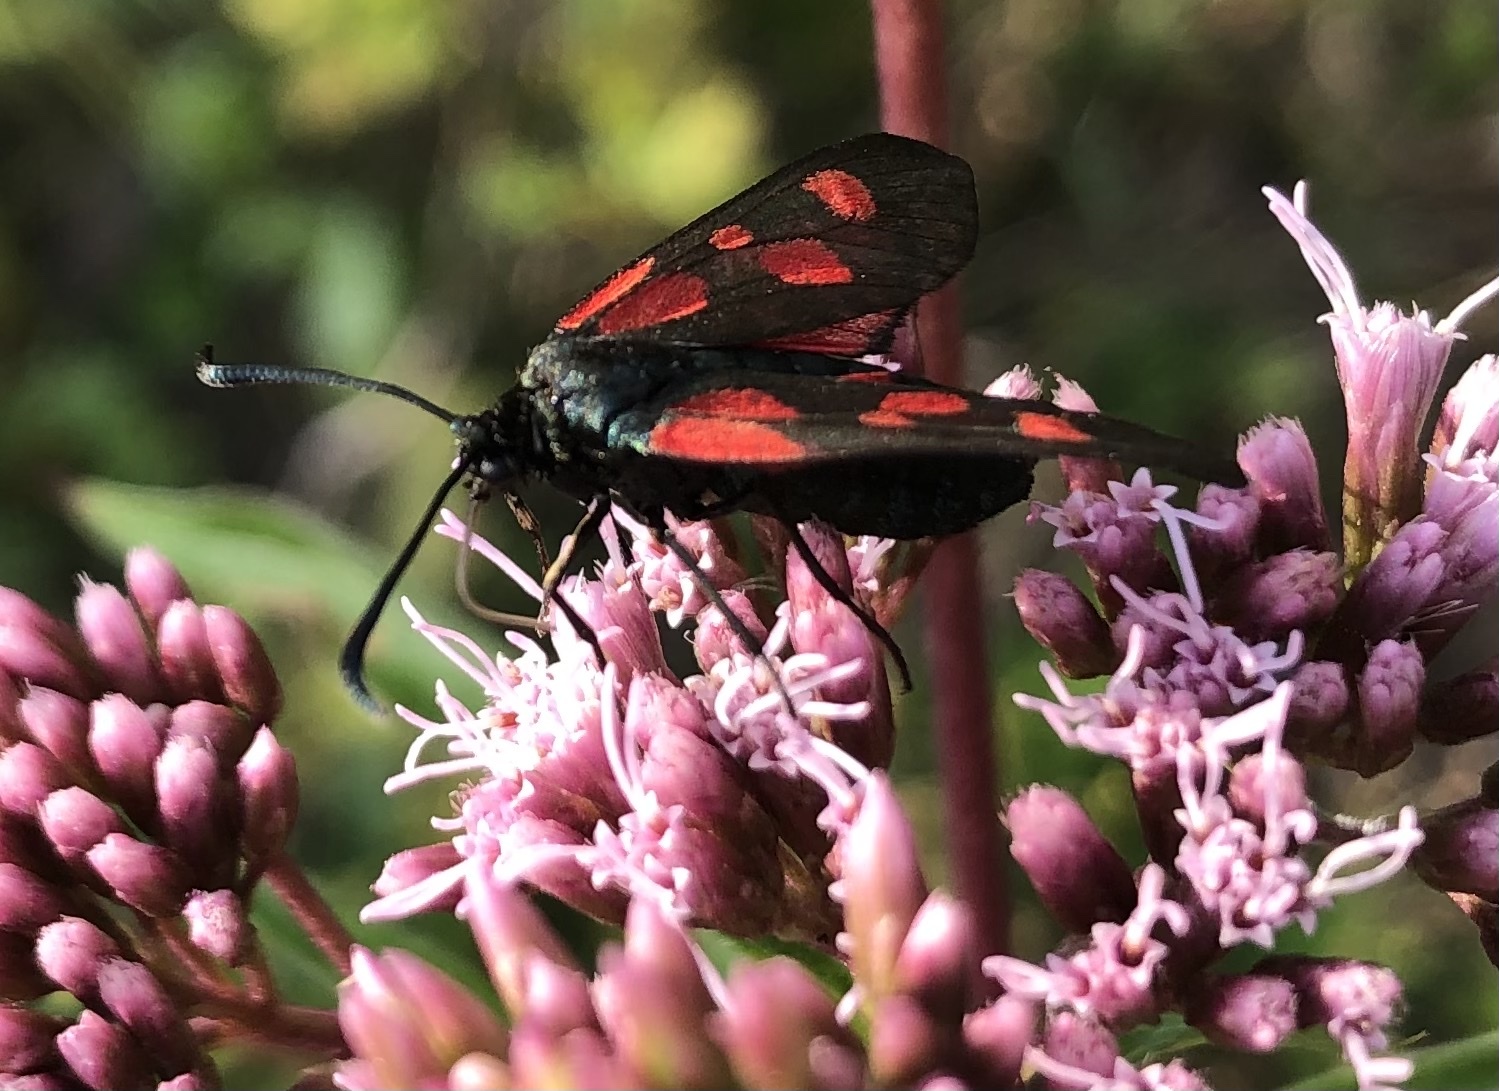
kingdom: Animalia
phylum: Arthropoda
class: Insecta
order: Lepidoptera
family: Zygaenidae
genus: Zygaena
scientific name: Zygaena lonicerae
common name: Narrow-bordered five-spot burnet
